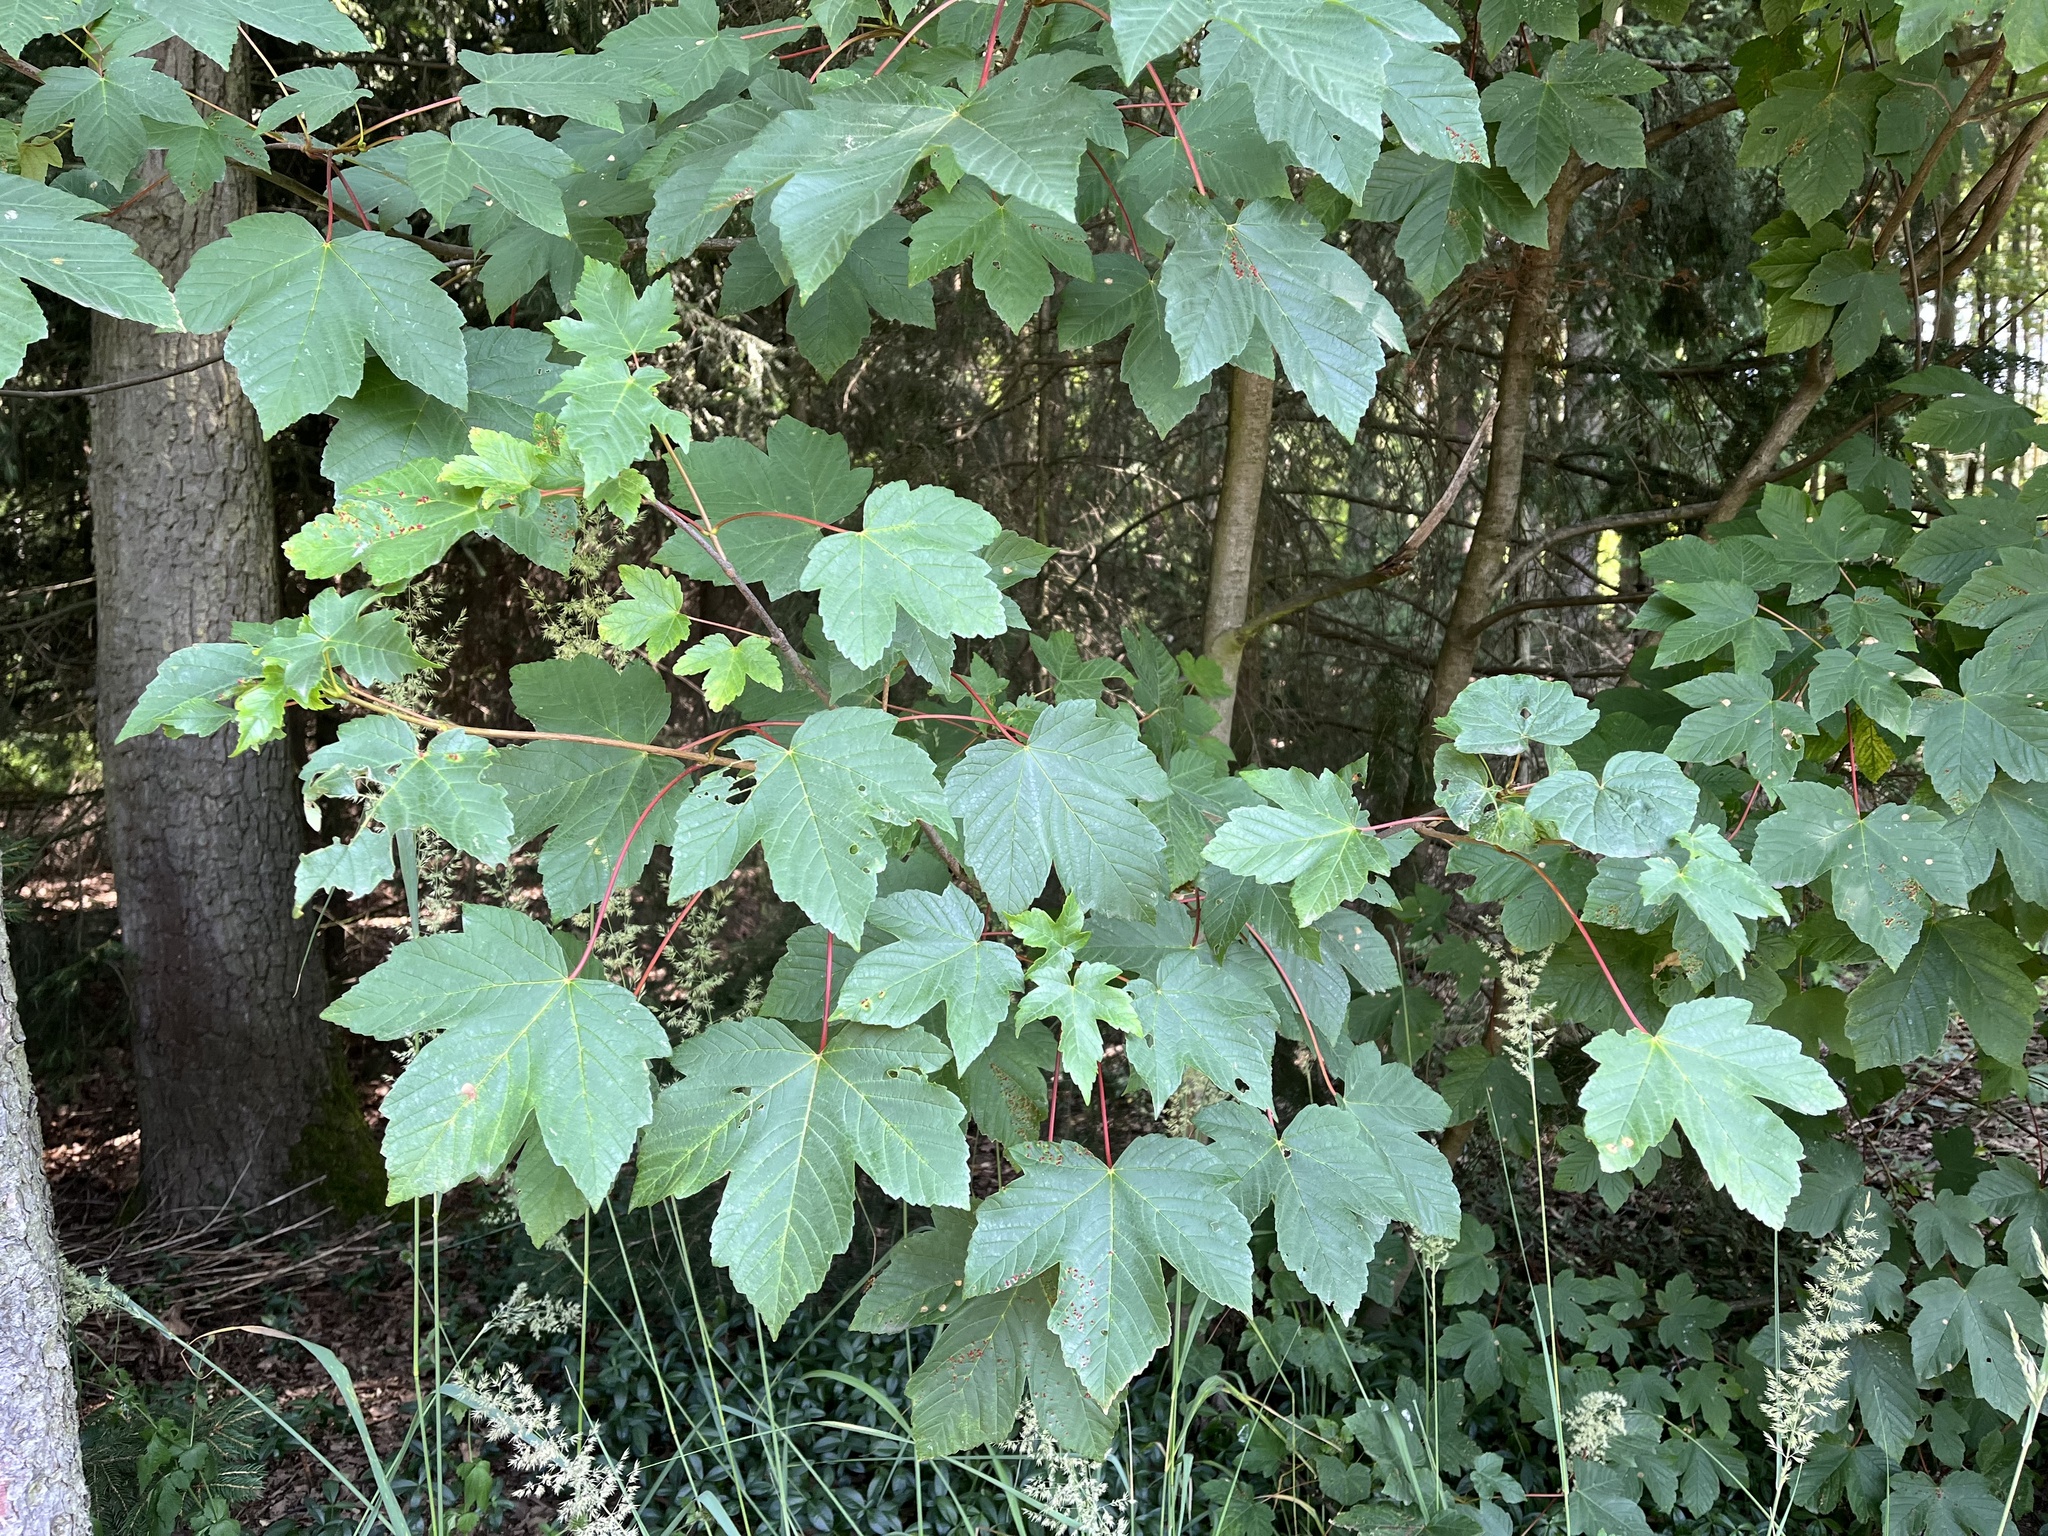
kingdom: Plantae
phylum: Tracheophyta
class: Magnoliopsida
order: Sapindales
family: Sapindaceae
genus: Acer
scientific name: Acer pseudoplatanus
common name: Sycamore
